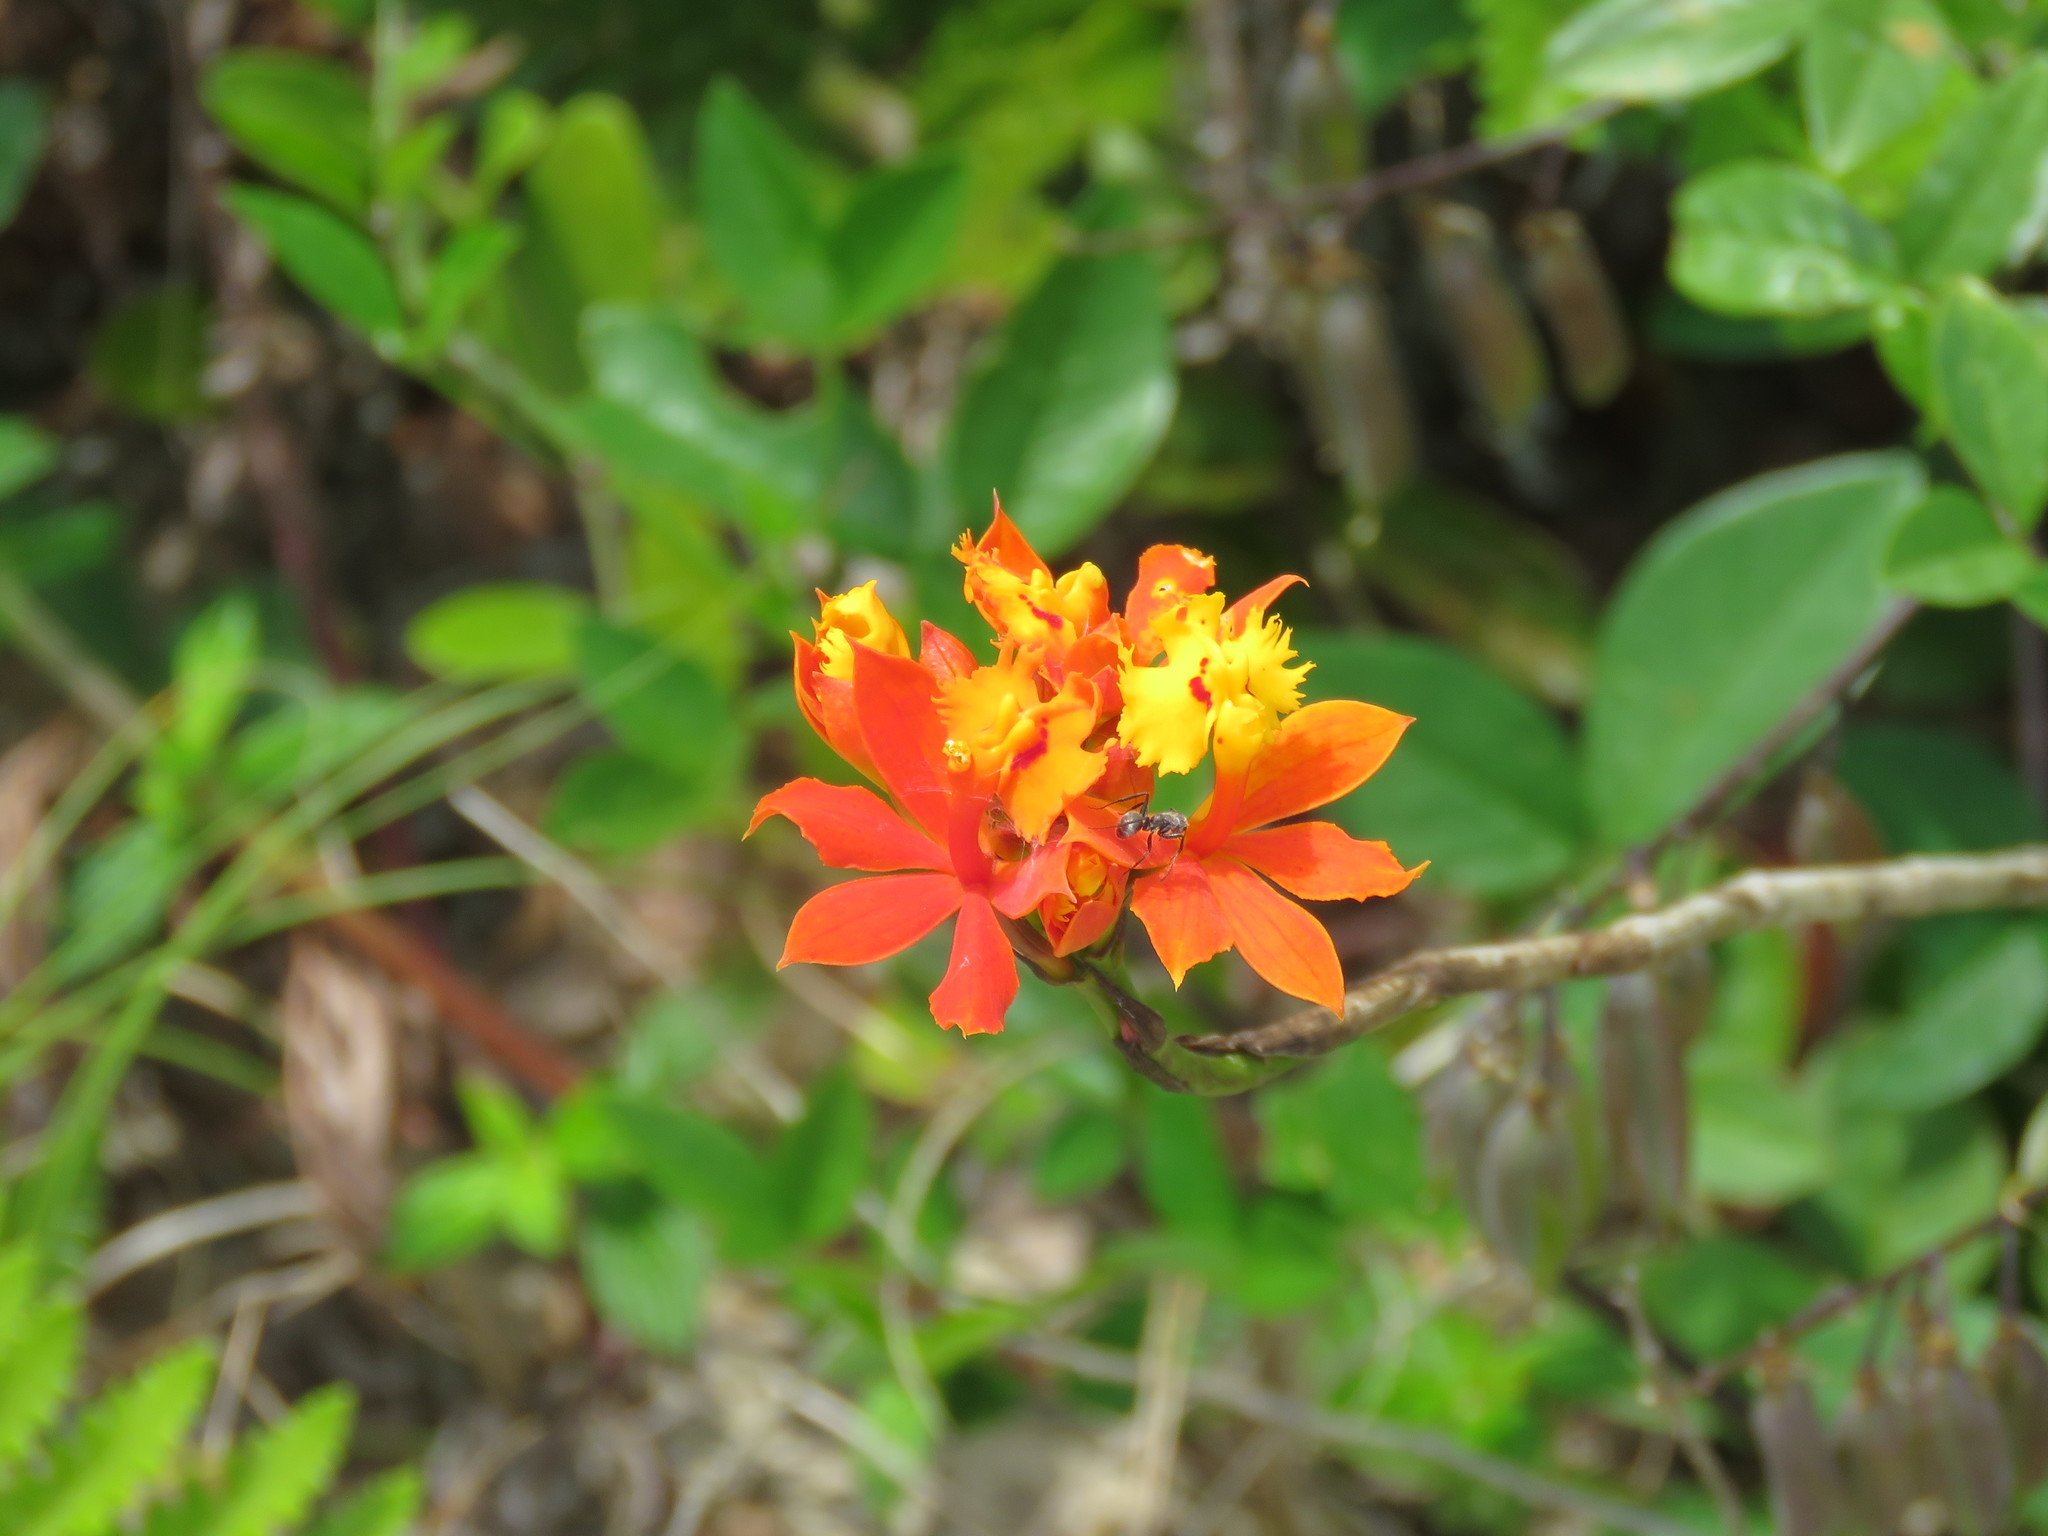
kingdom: Plantae
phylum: Tracheophyta
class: Liliopsida
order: Asparagales
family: Orchidaceae
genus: Epidendrum
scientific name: Epidendrum fulgens
